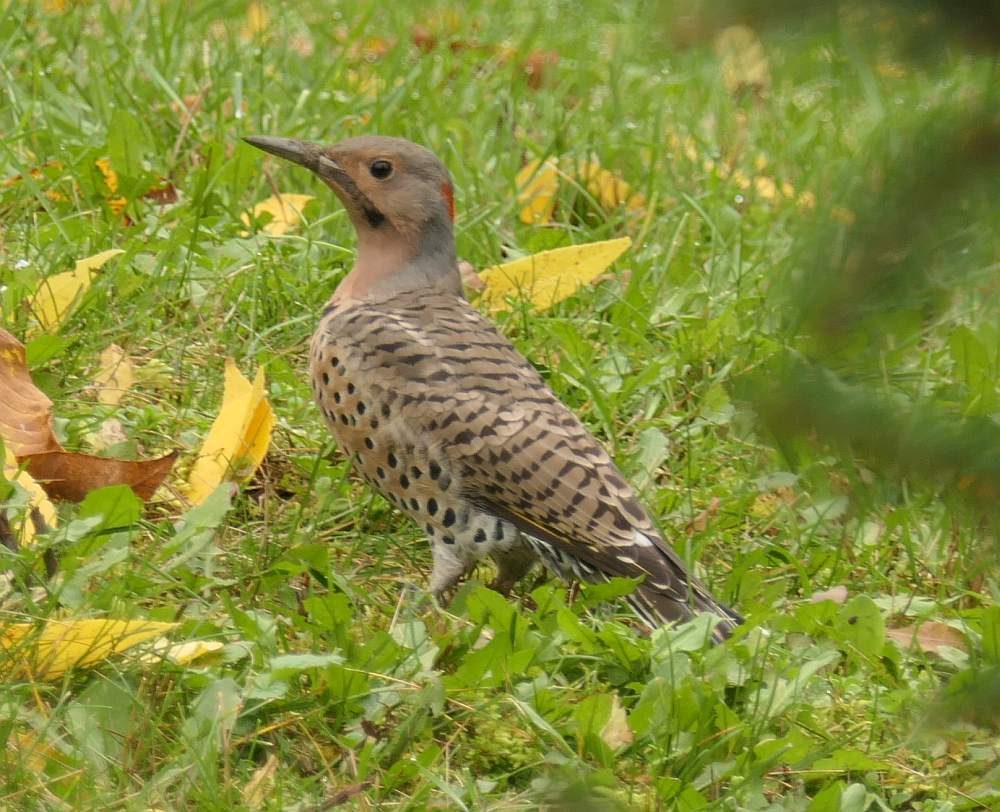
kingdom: Animalia
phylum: Chordata
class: Aves
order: Piciformes
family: Picidae
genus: Colaptes
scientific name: Colaptes auratus
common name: Northern flicker
